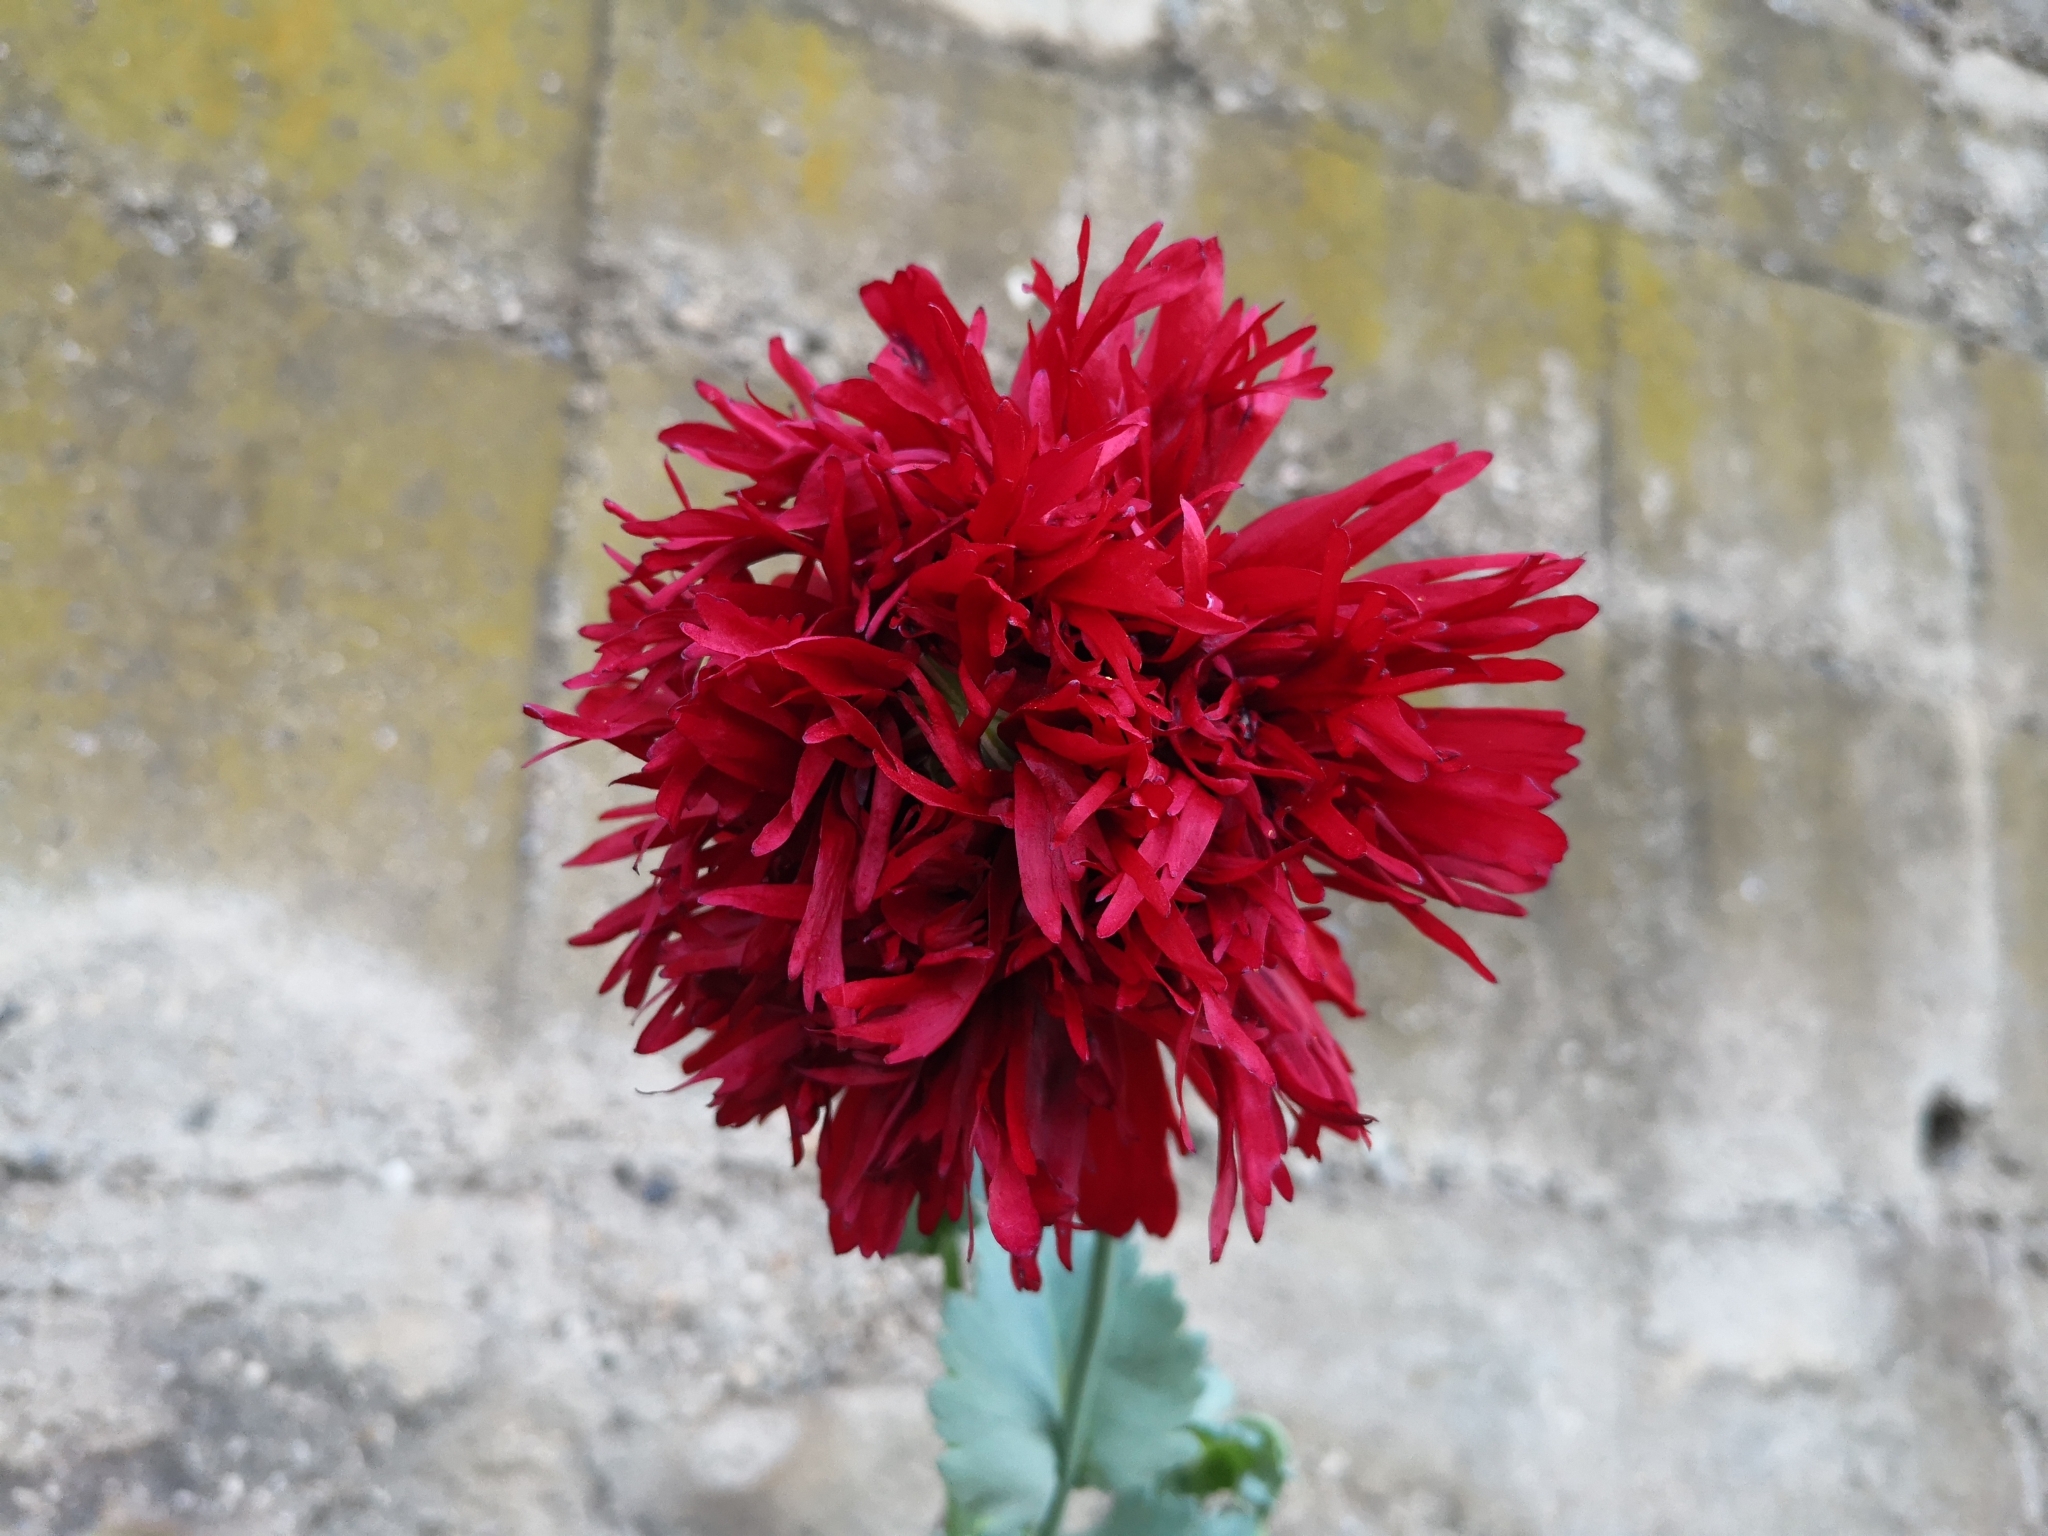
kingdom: Plantae
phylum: Tracheophyta
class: Magnoliopsida
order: Ranunculales
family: Papaveraceae
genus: Papaver
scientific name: Papaver somniferum
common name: Opium poppy
